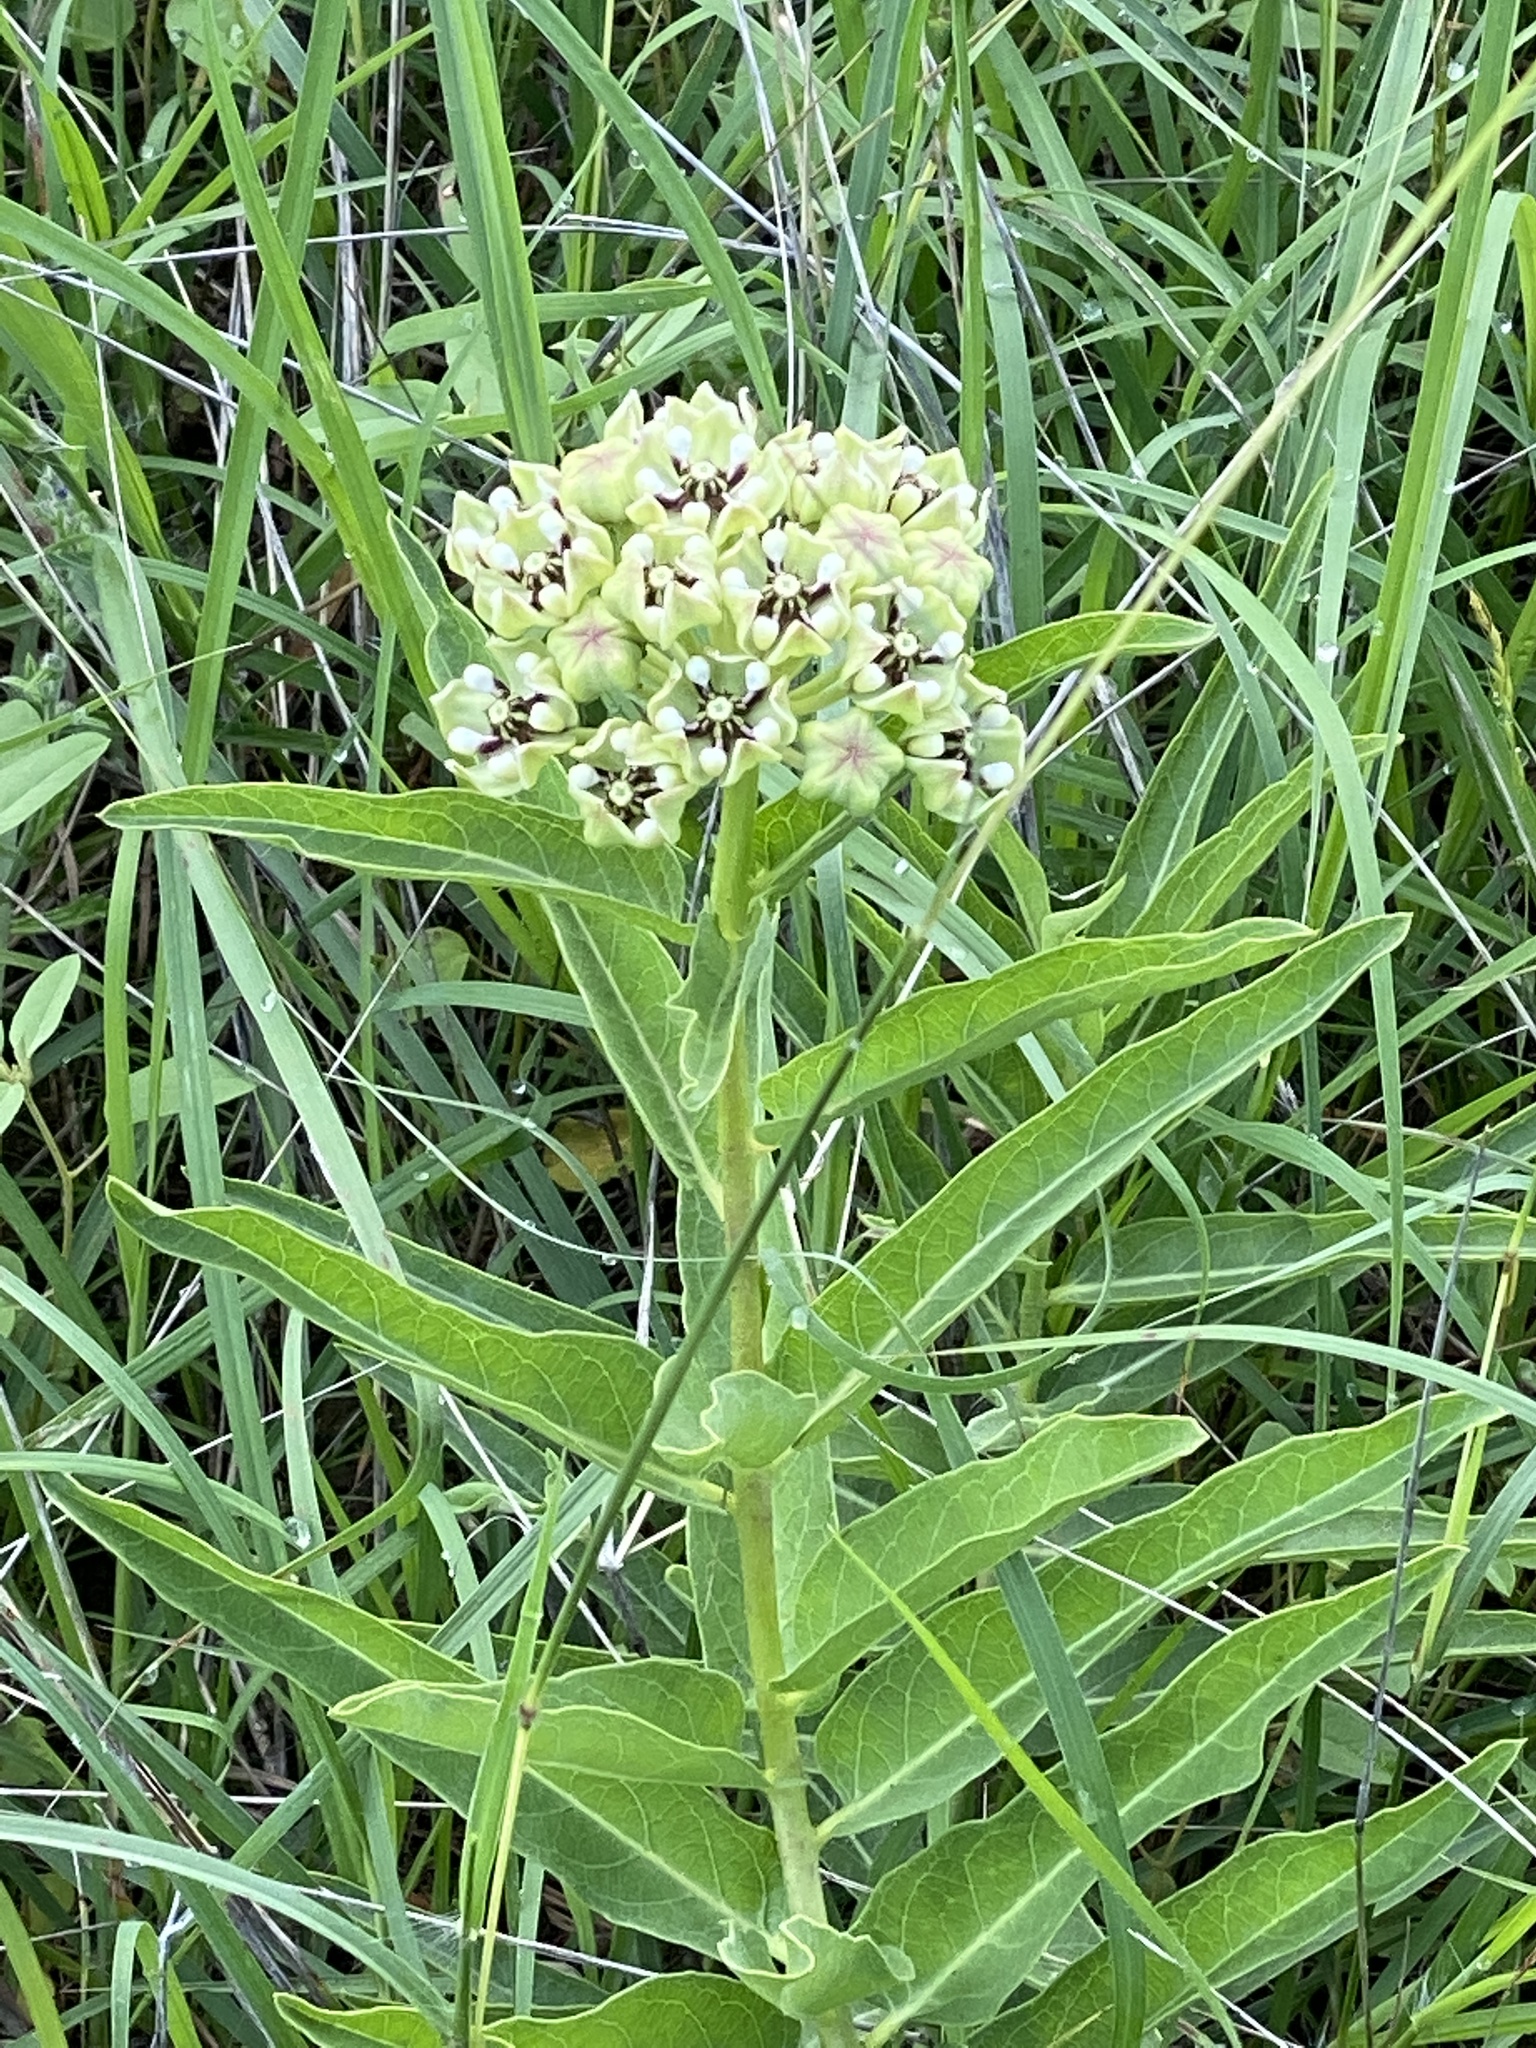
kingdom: Plantae
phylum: Tracheophyta
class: Magnoliopsida
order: Gentianales
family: Apocynaceae
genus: Asclepias
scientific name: Asclepias asperula
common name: Antelope horns
